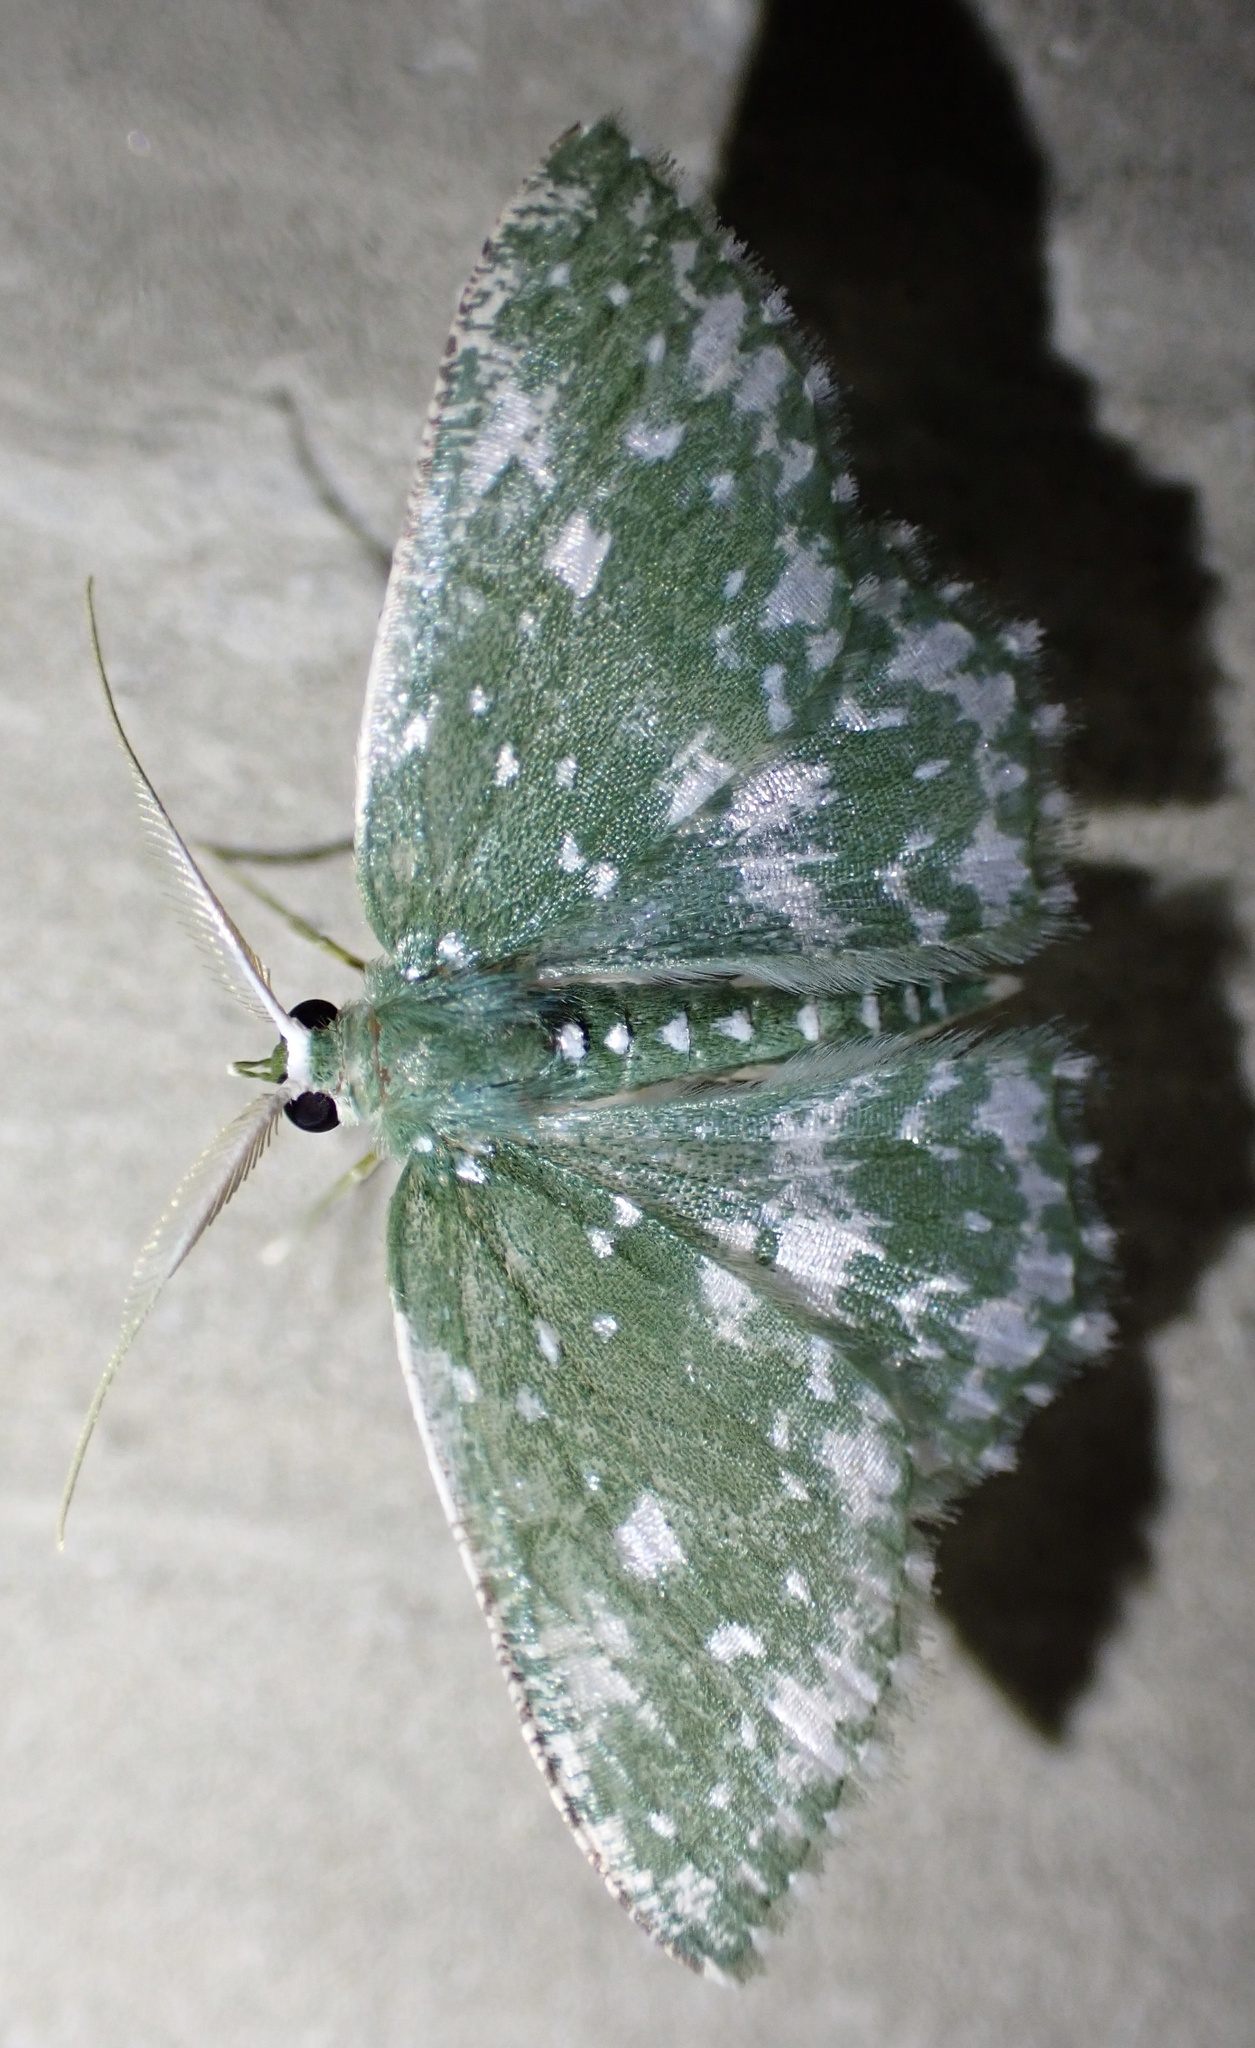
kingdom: Animalia
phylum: Arthropoda
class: Insecta
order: Lepidoptera
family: Geometridae
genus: Prasinocyma
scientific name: Prasinocyma
